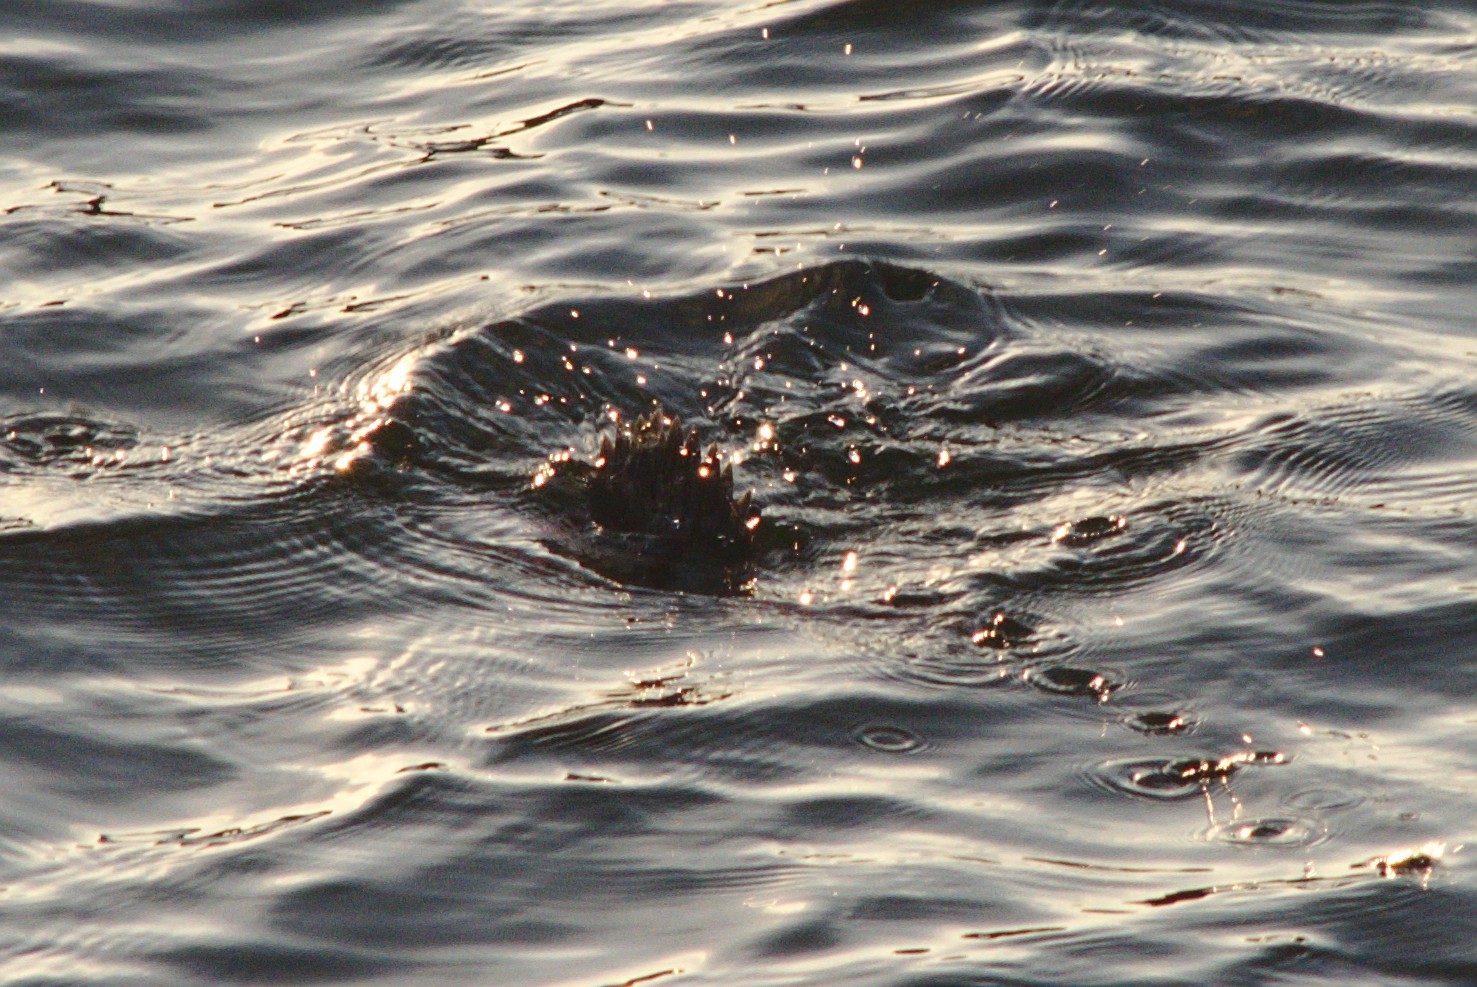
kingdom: Animalia
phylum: Chordata
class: Aves
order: Anseriformes
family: Anatidae
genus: Bucephala
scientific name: Bucephala albeola
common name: Bufflehead
